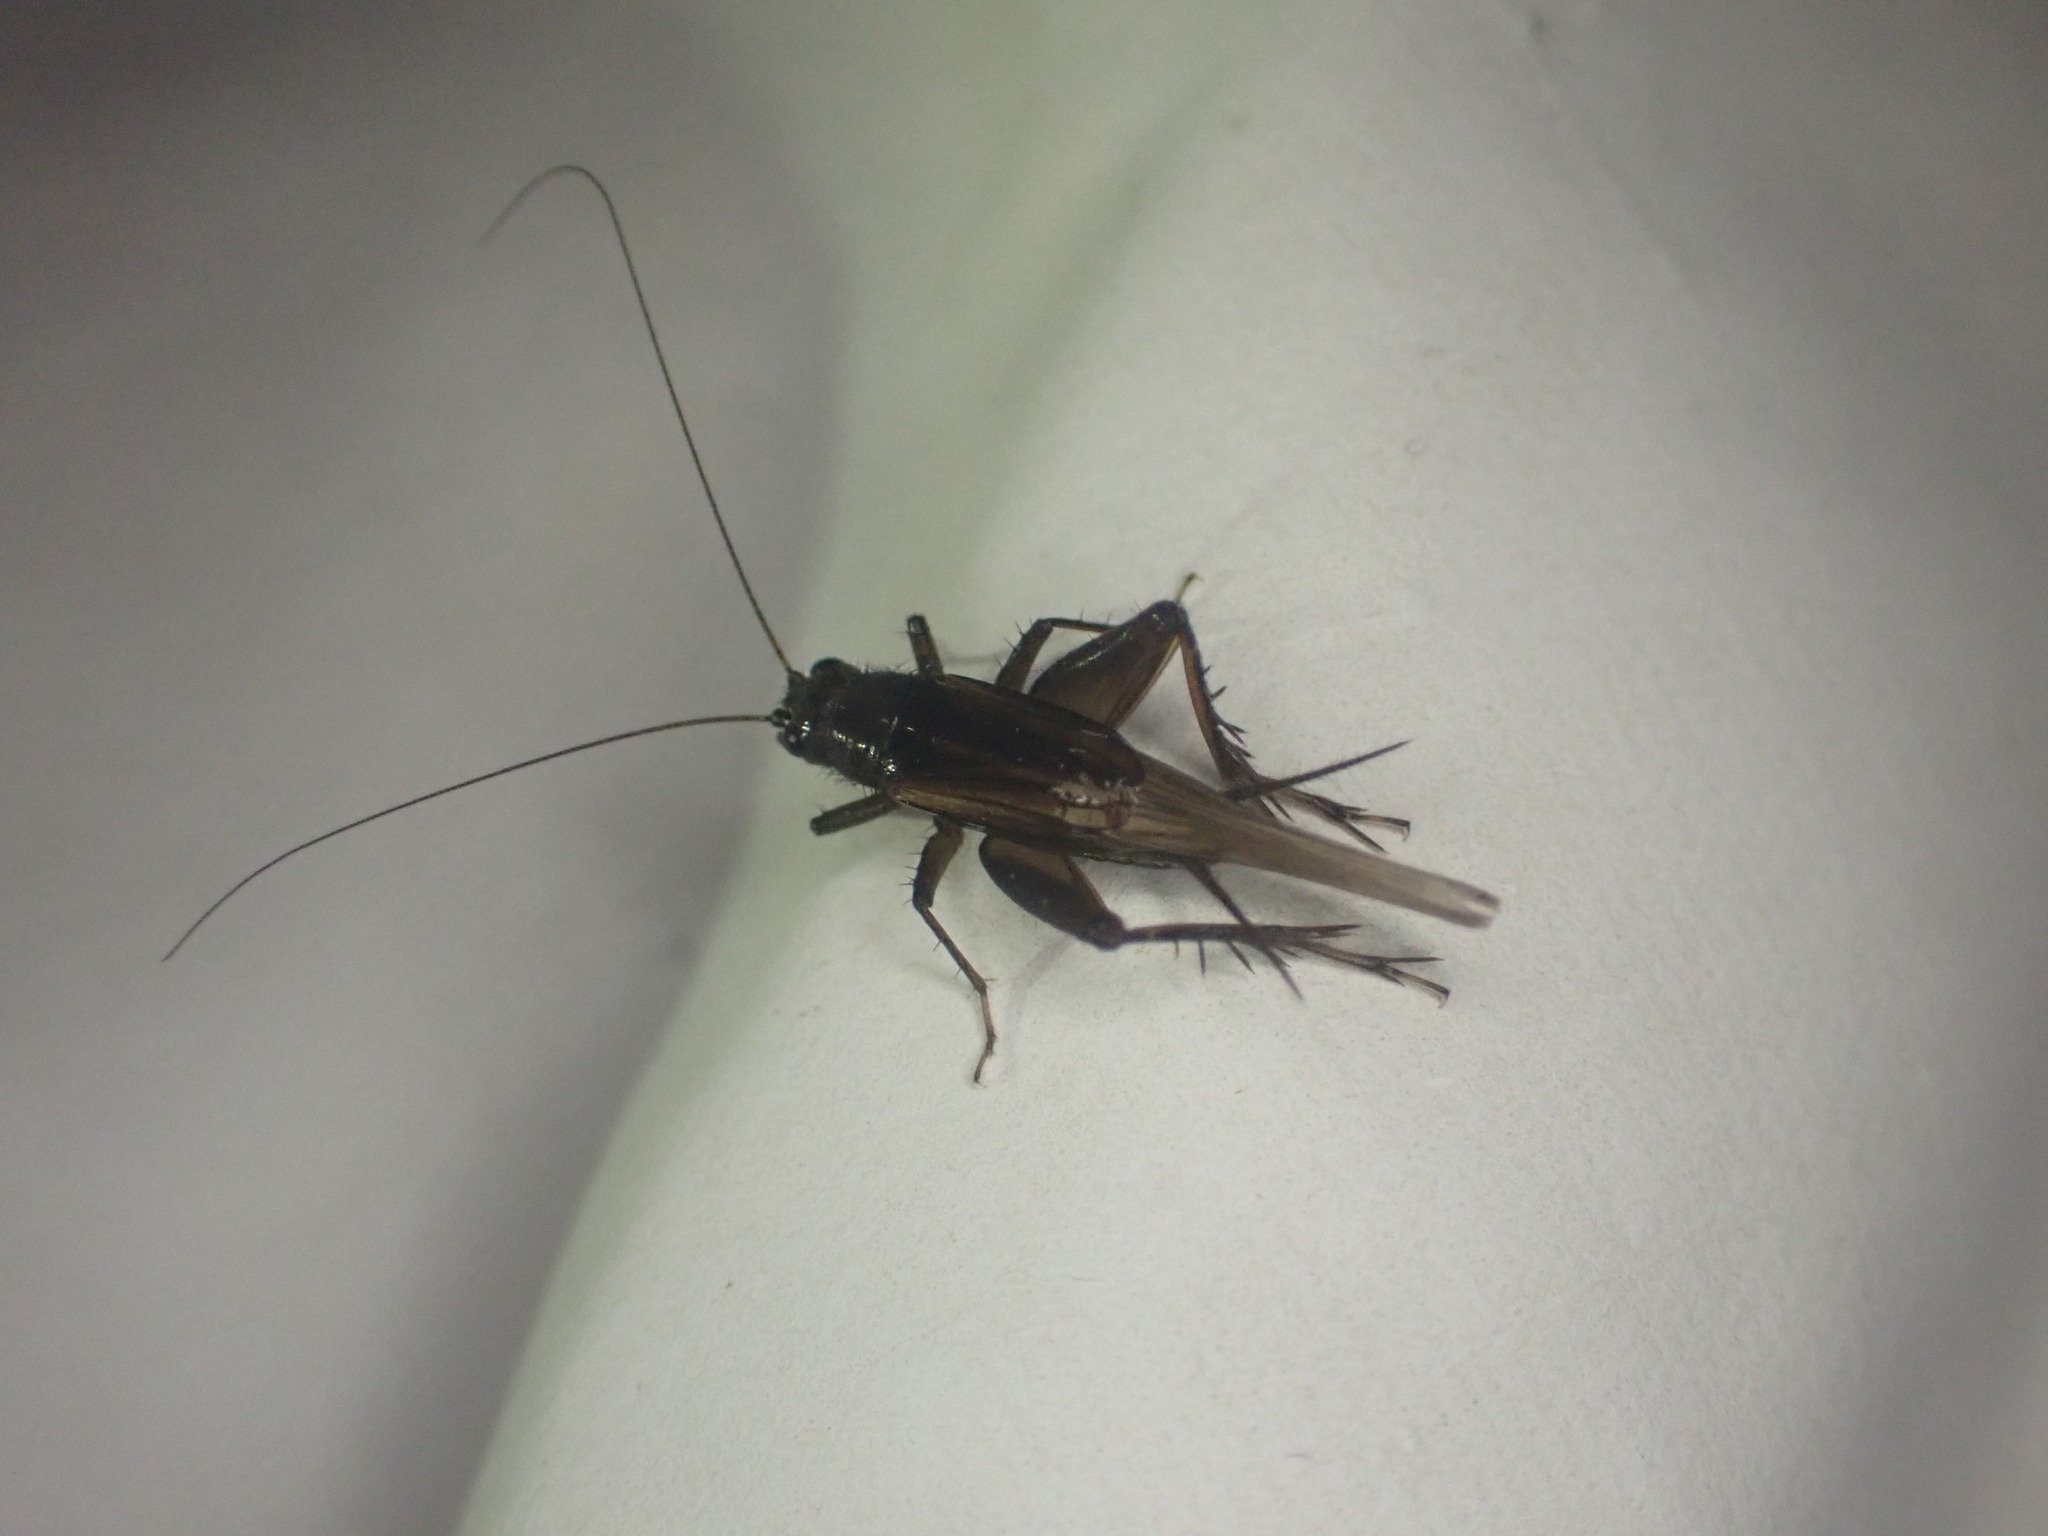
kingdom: Animalia
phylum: Arthropoda
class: Insecta
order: Orthoptera
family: Trigonidiidae
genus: Pteronemobius
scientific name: Pteronemobius truncatus
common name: Confusing pygmy cricket
